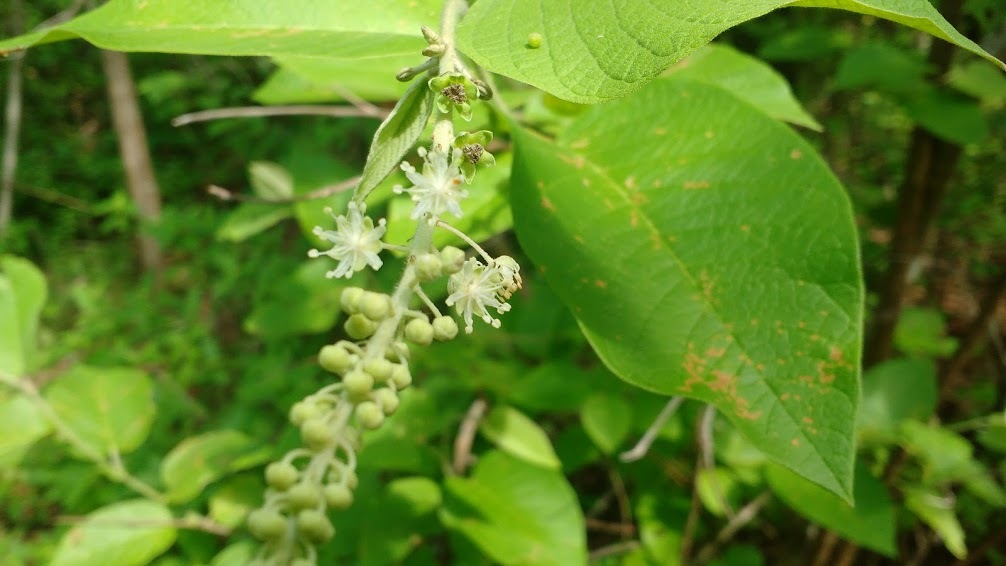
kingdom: Plantae
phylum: Tracheophyta
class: Magnoliopsida
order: Malpighiales
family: Euphorbiaceae
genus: Croton
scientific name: Croton blanchetianus
